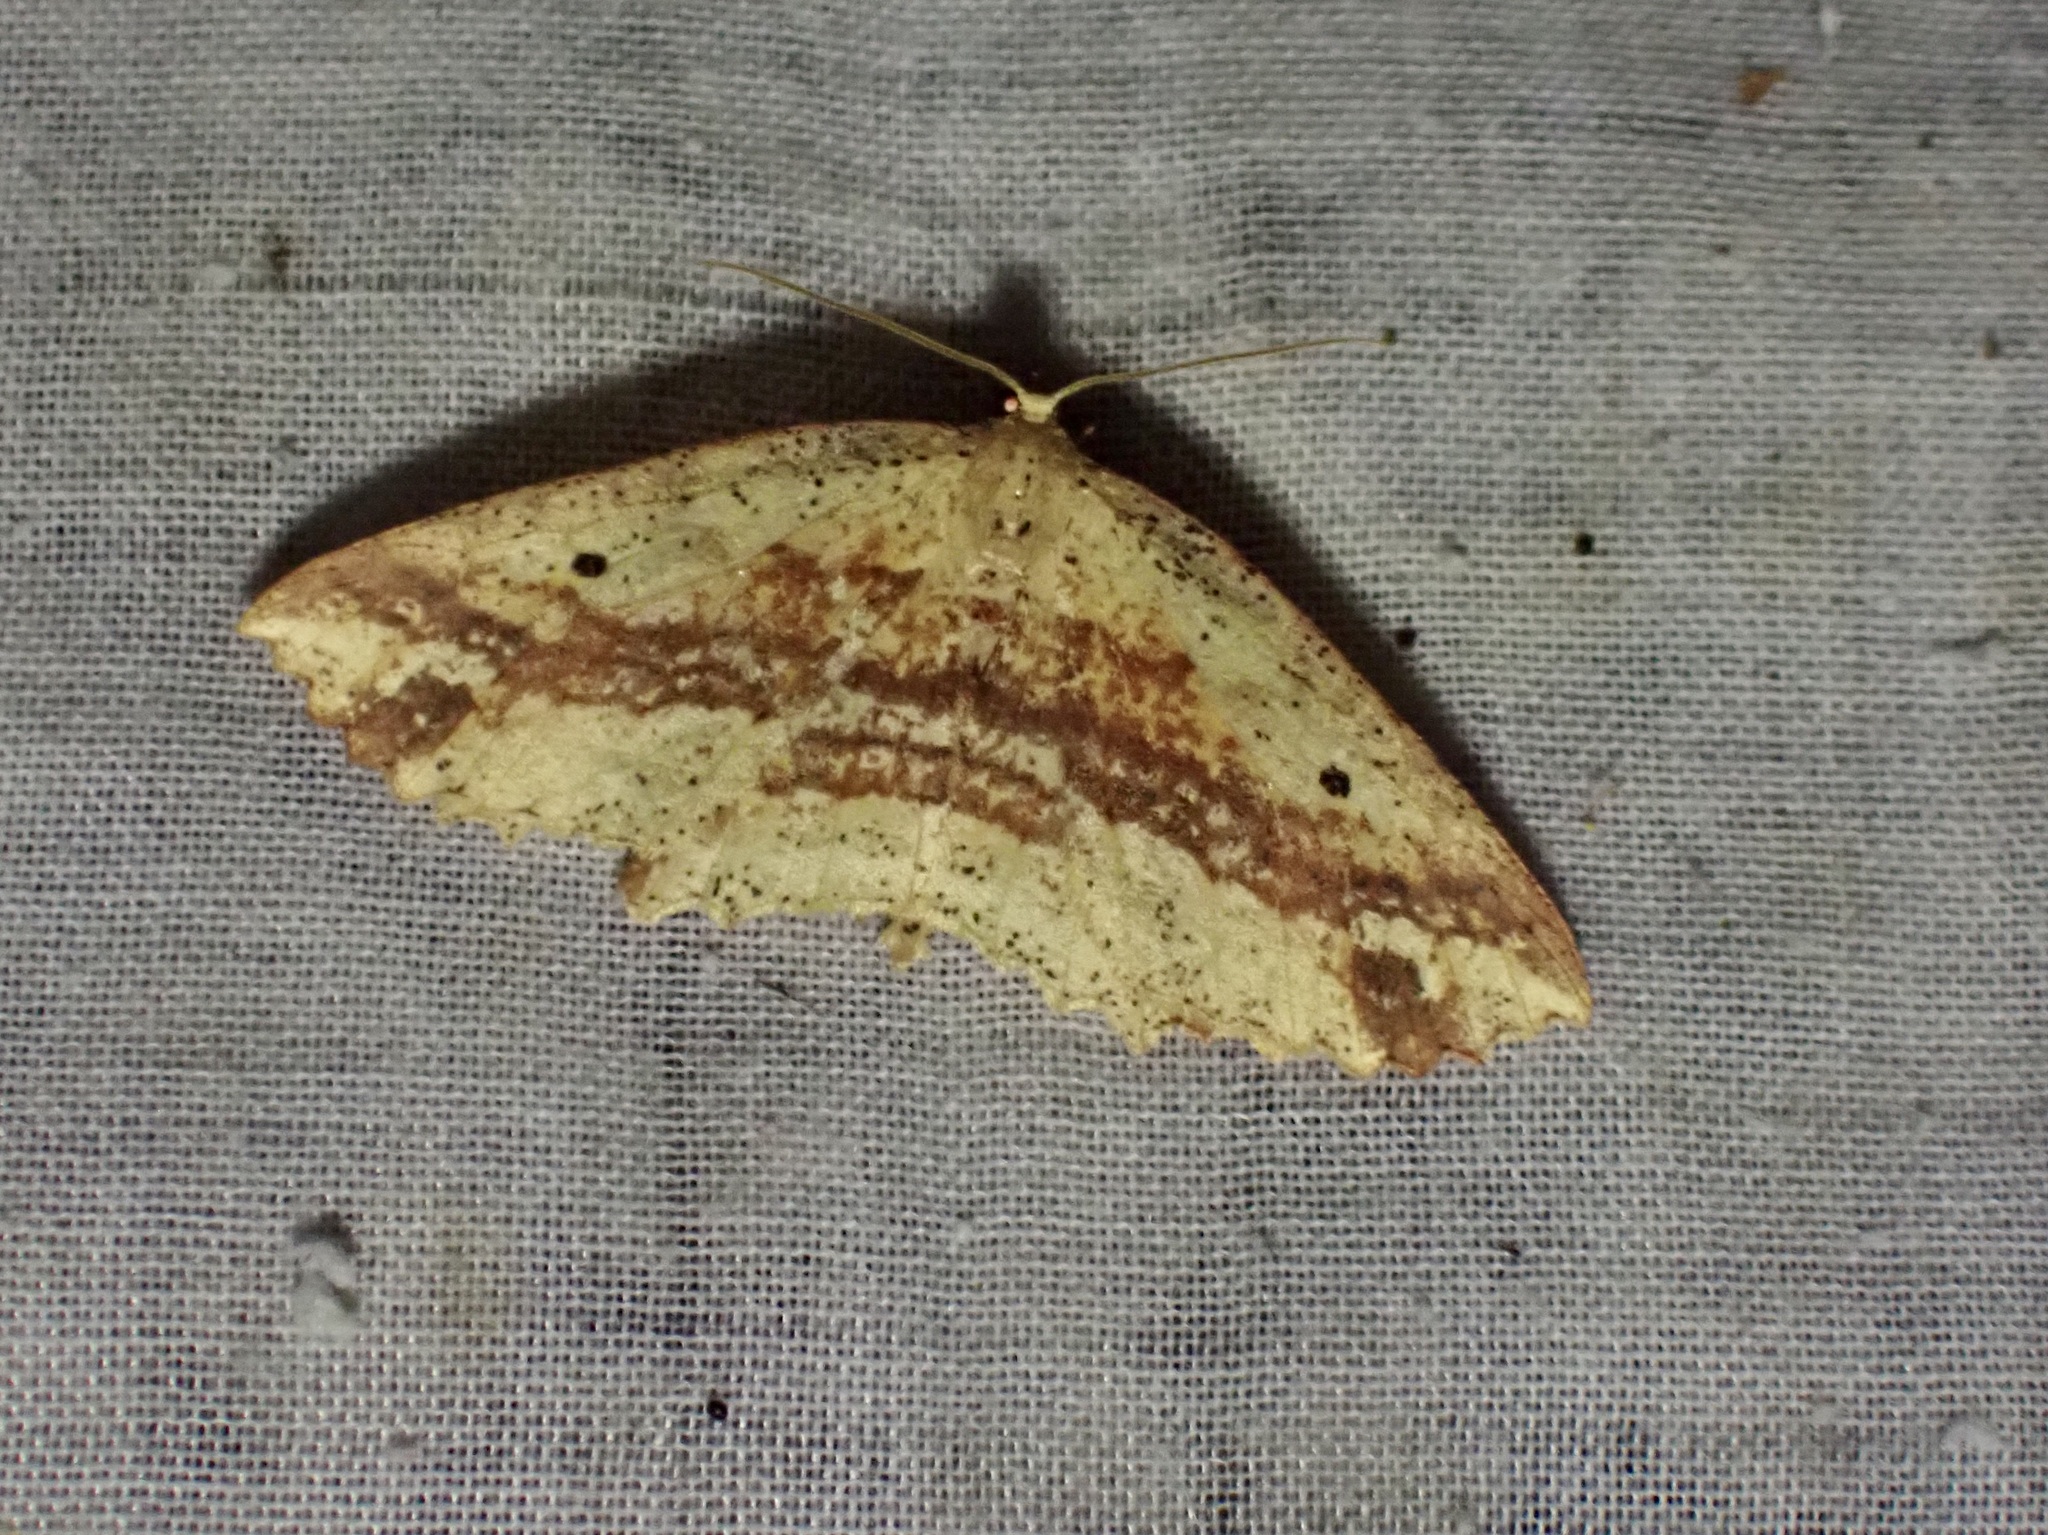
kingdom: Animalia
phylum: Arthropoda
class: Insecta
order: Lepidoptera
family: Geometridae
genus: Xyridacma
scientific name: Xyridacma veronicae
